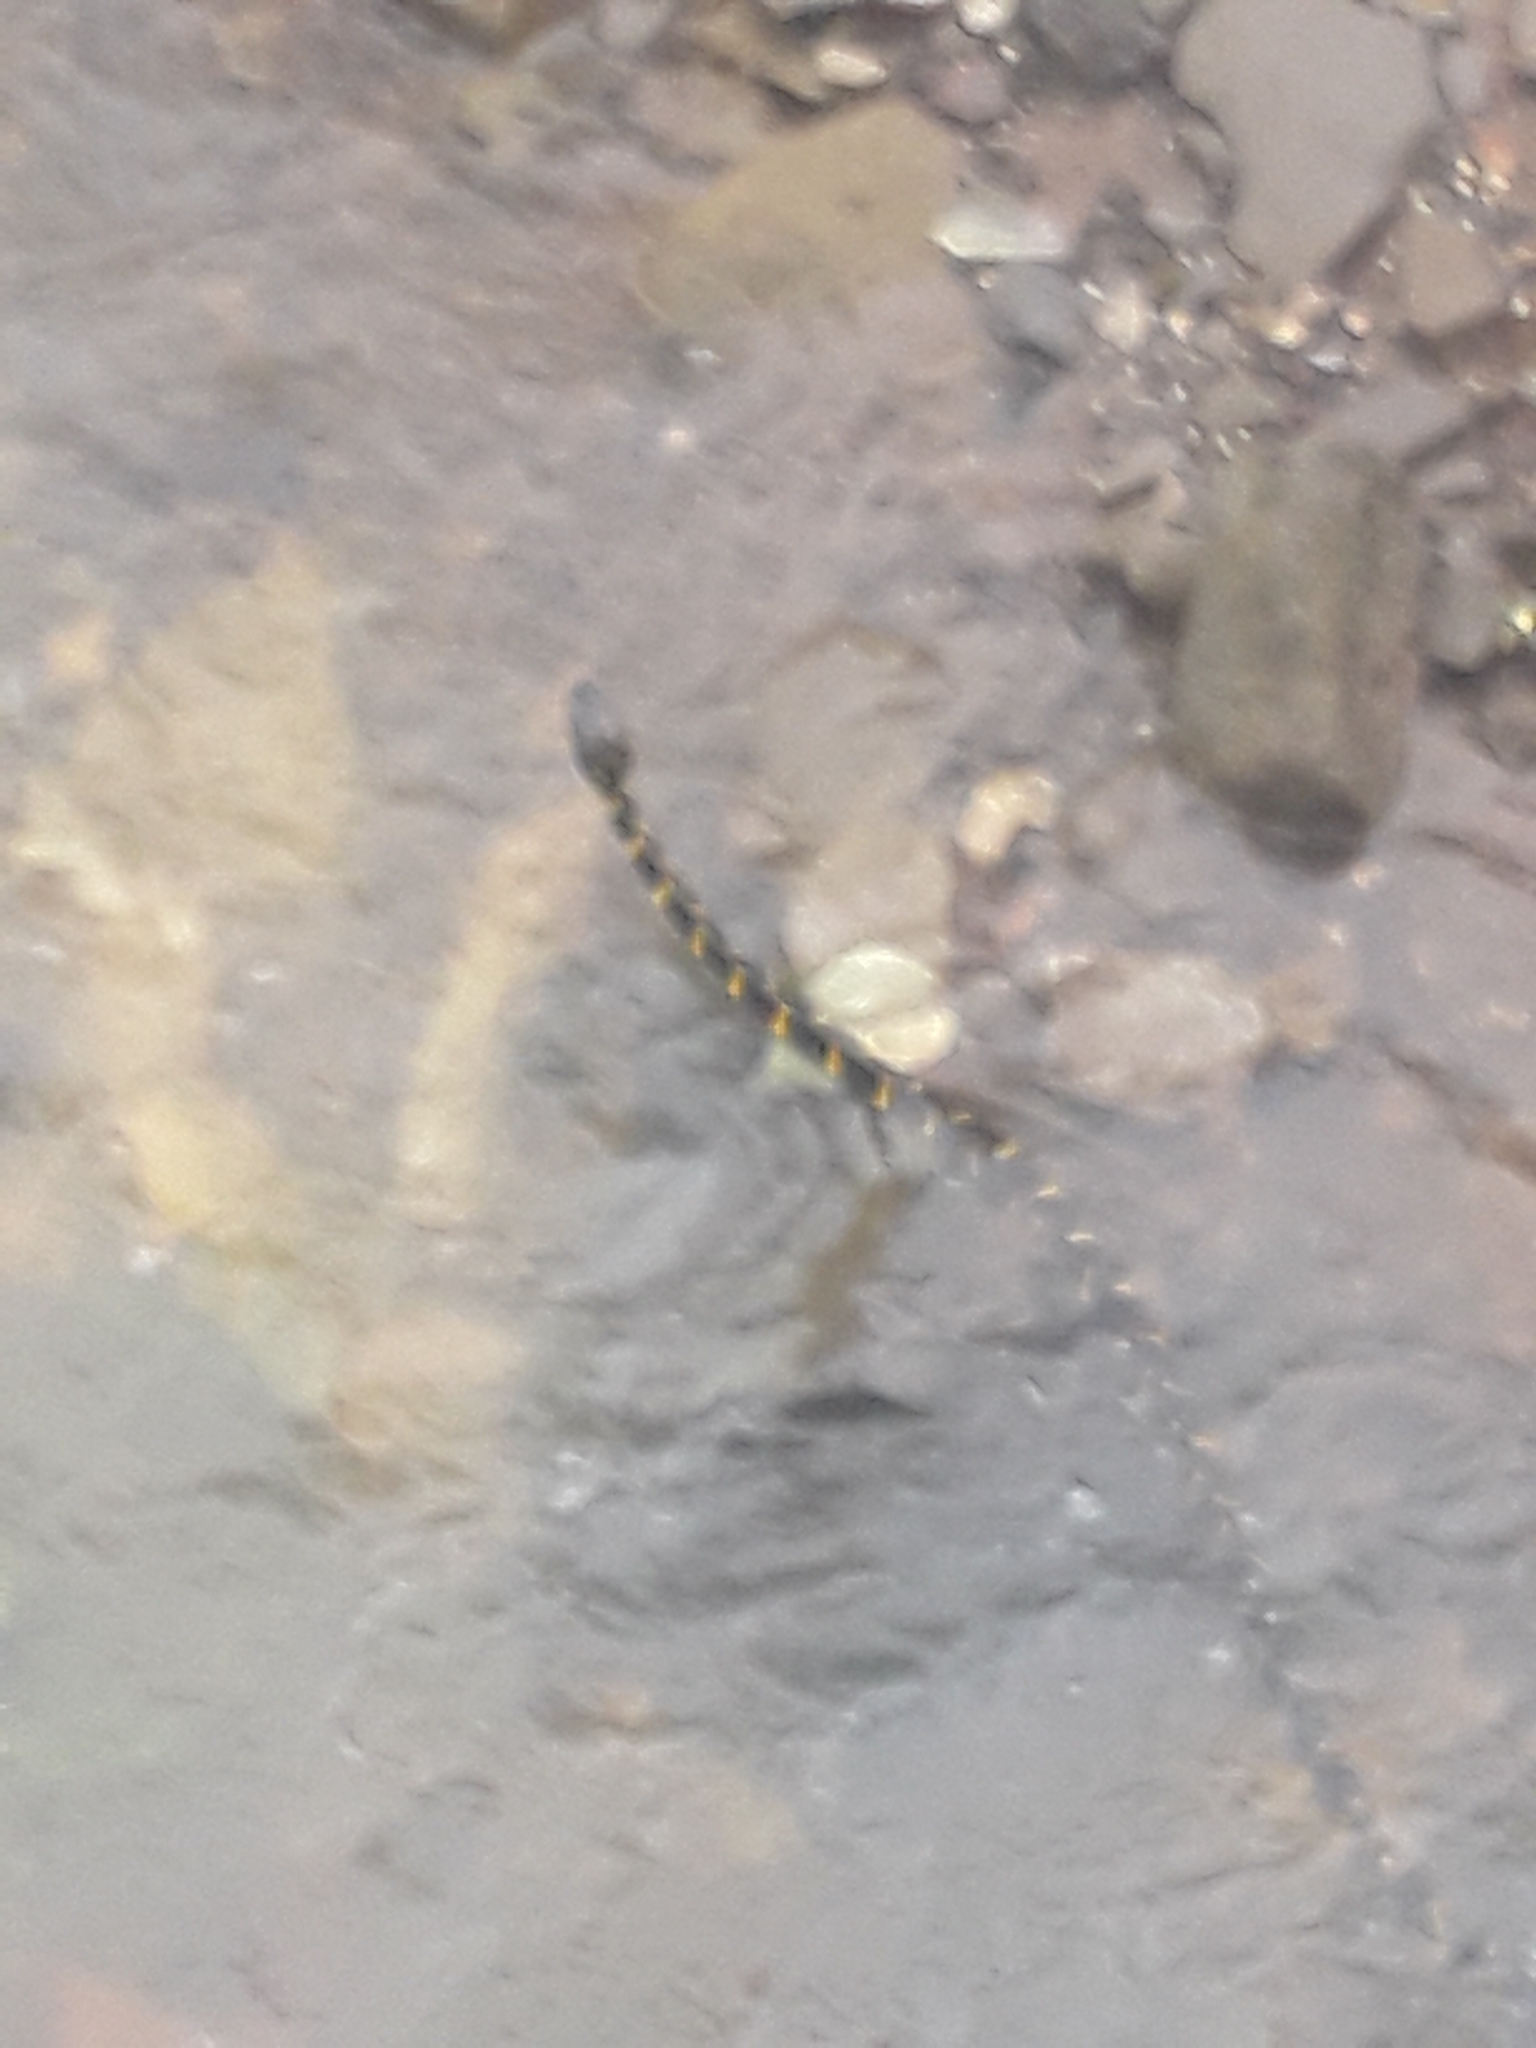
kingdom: Animalia
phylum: Chordata
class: Squamata
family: Colubridae
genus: Boiga
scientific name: Boiga dendrophila
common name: Gold-ringed cat snake
